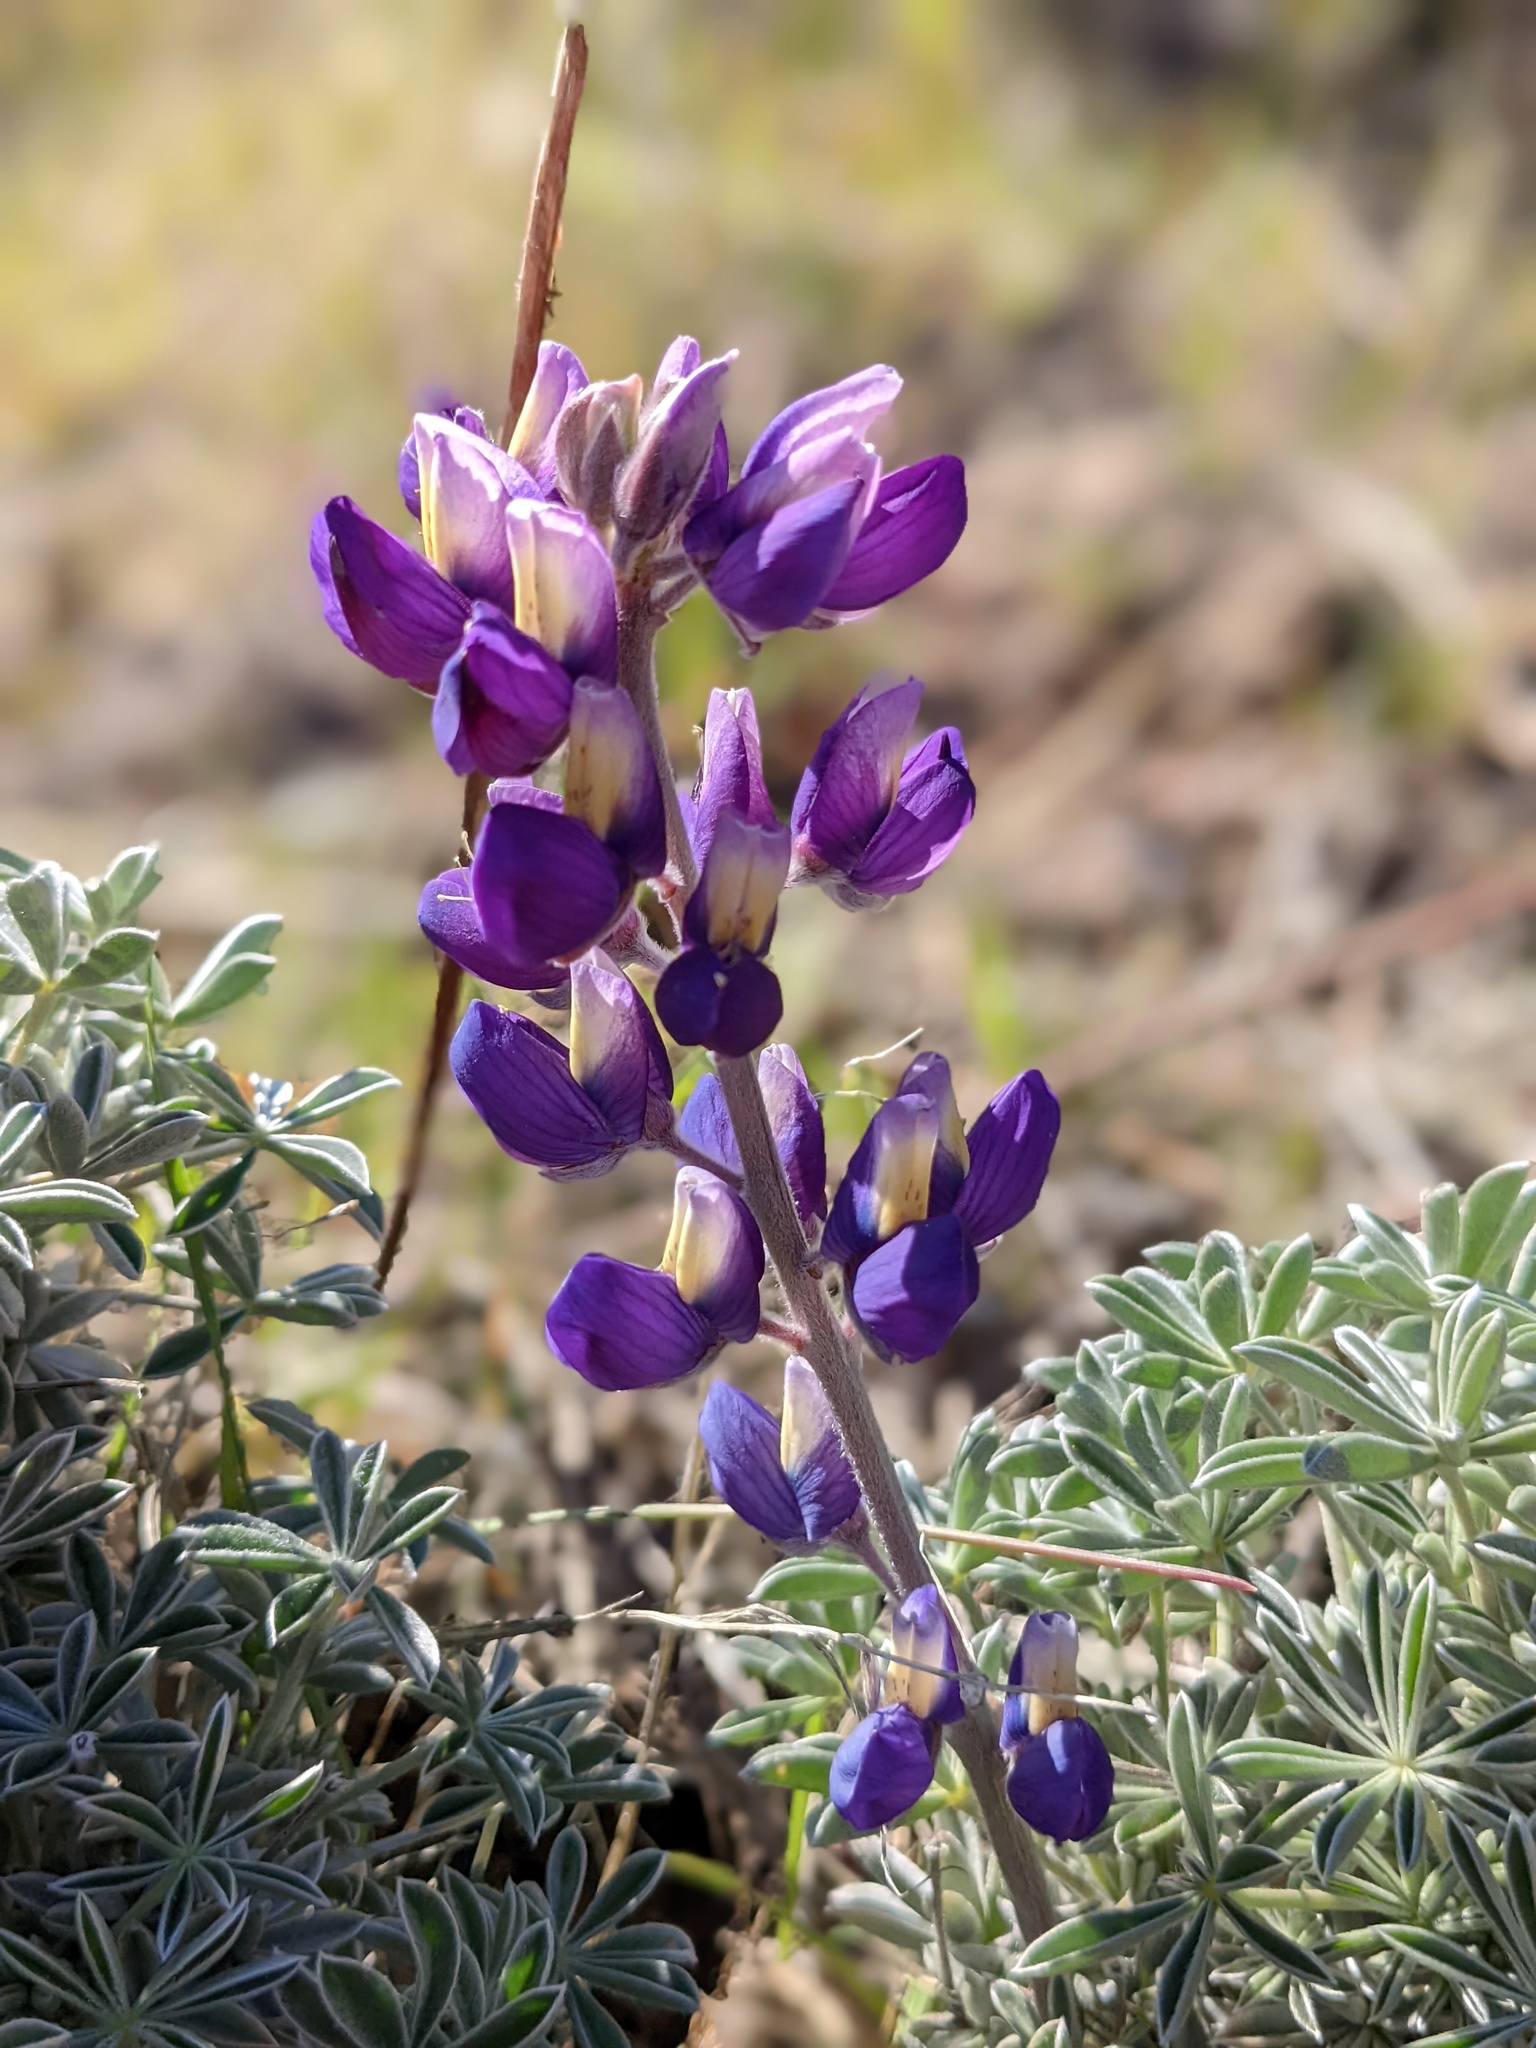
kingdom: Plantae
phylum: Tracheophyta
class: Magnoliopsida
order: Fabales
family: Fabaceae
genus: Lupinus
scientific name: Lupinus albifrons
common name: Foothill lupine
